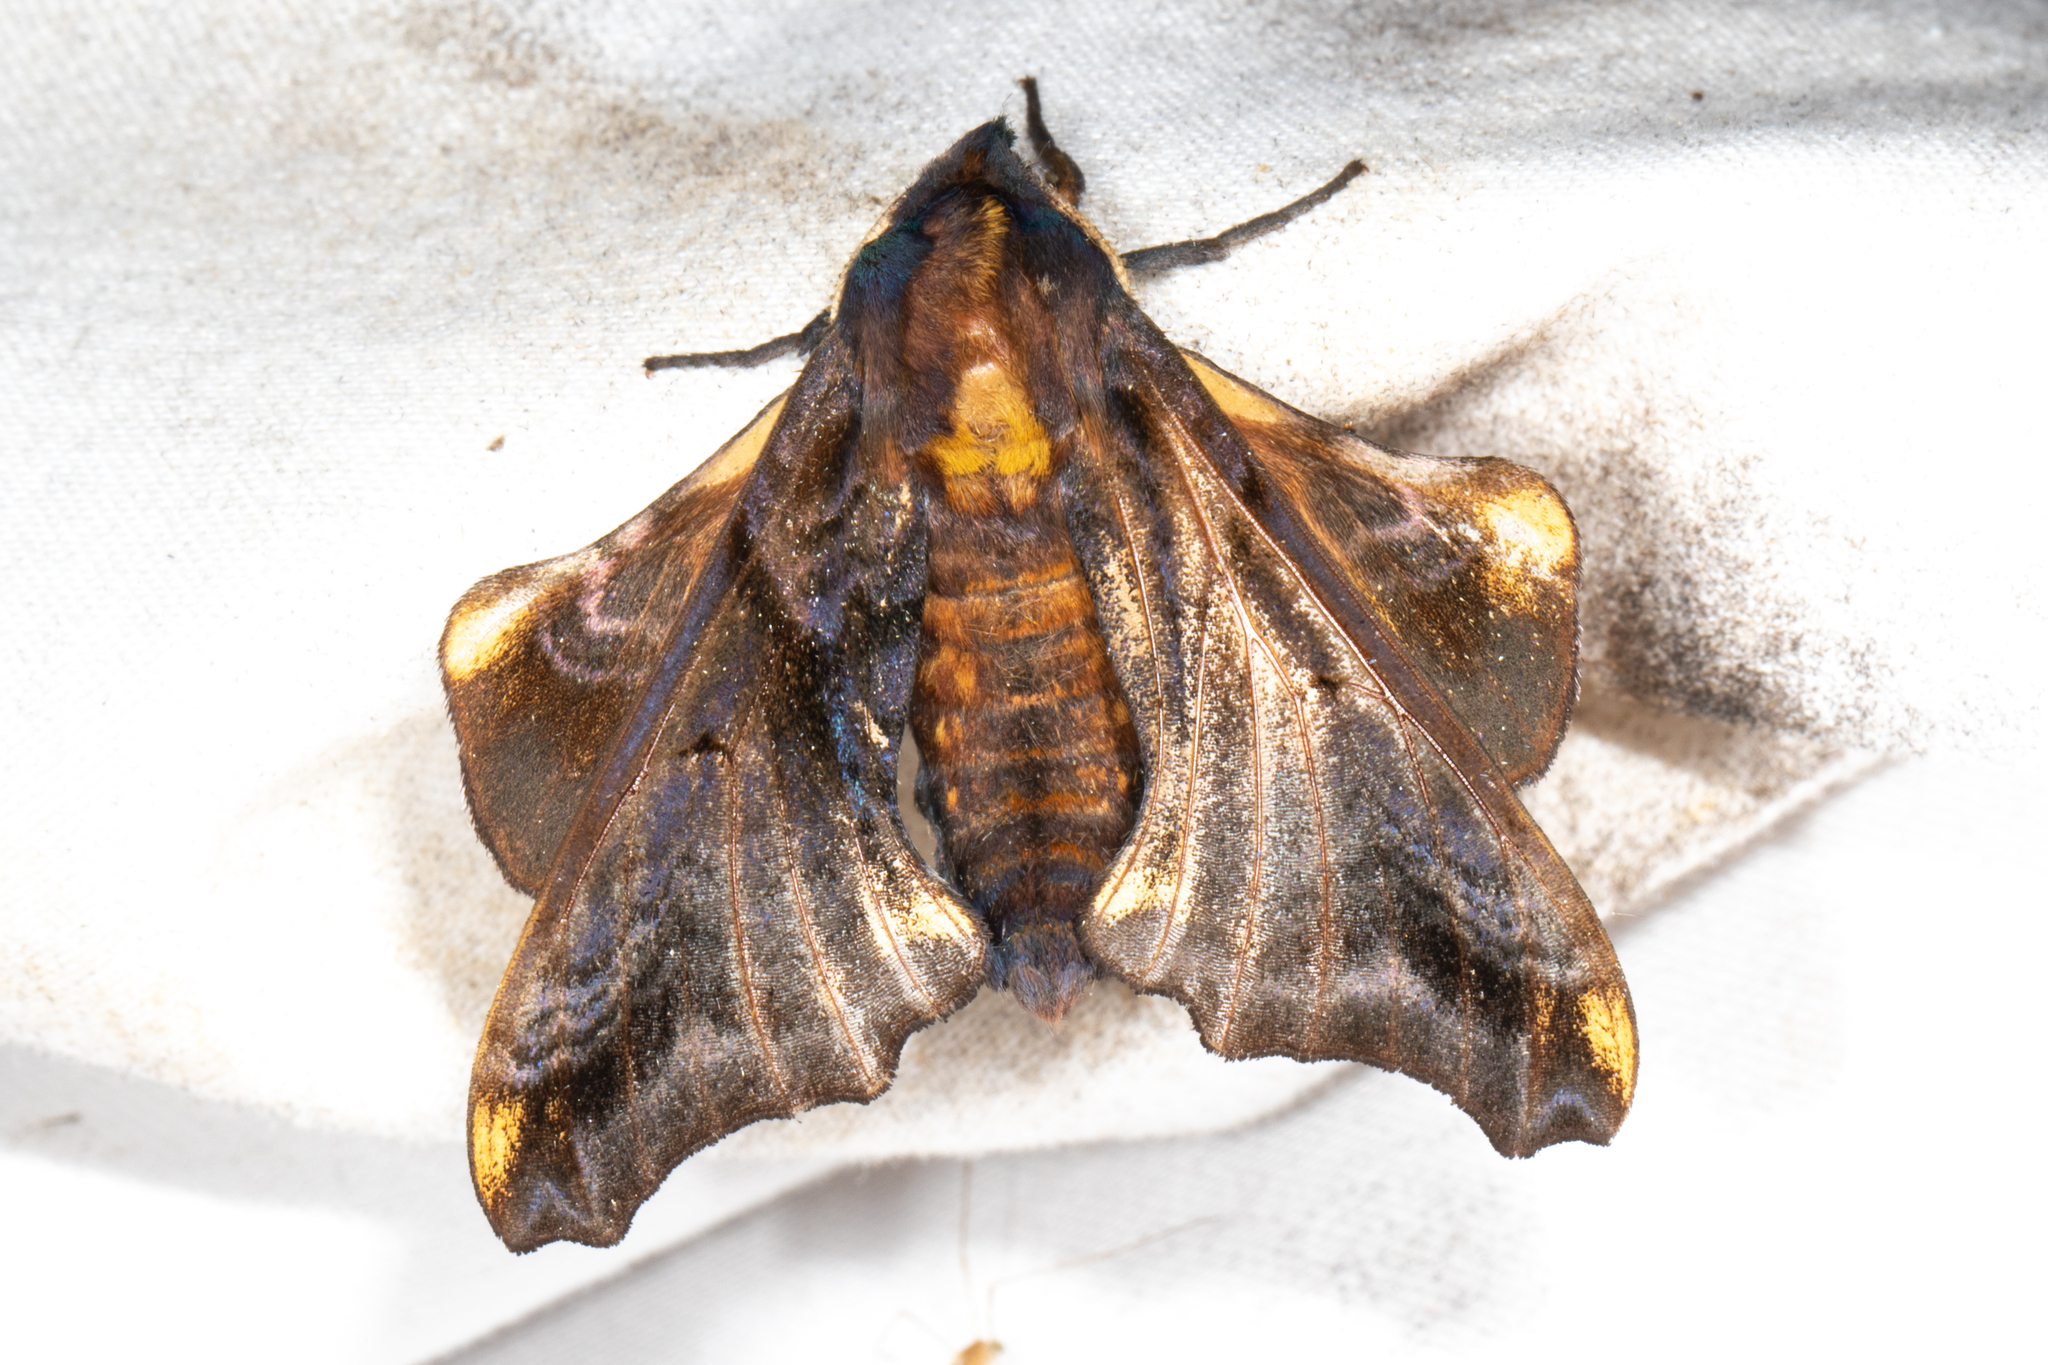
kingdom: Animalia
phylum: Arthropoda
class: Insecta
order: Lepidoptera
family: Sphingidae
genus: Paonias
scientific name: Paonias myops
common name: Small-eyed sphinx
